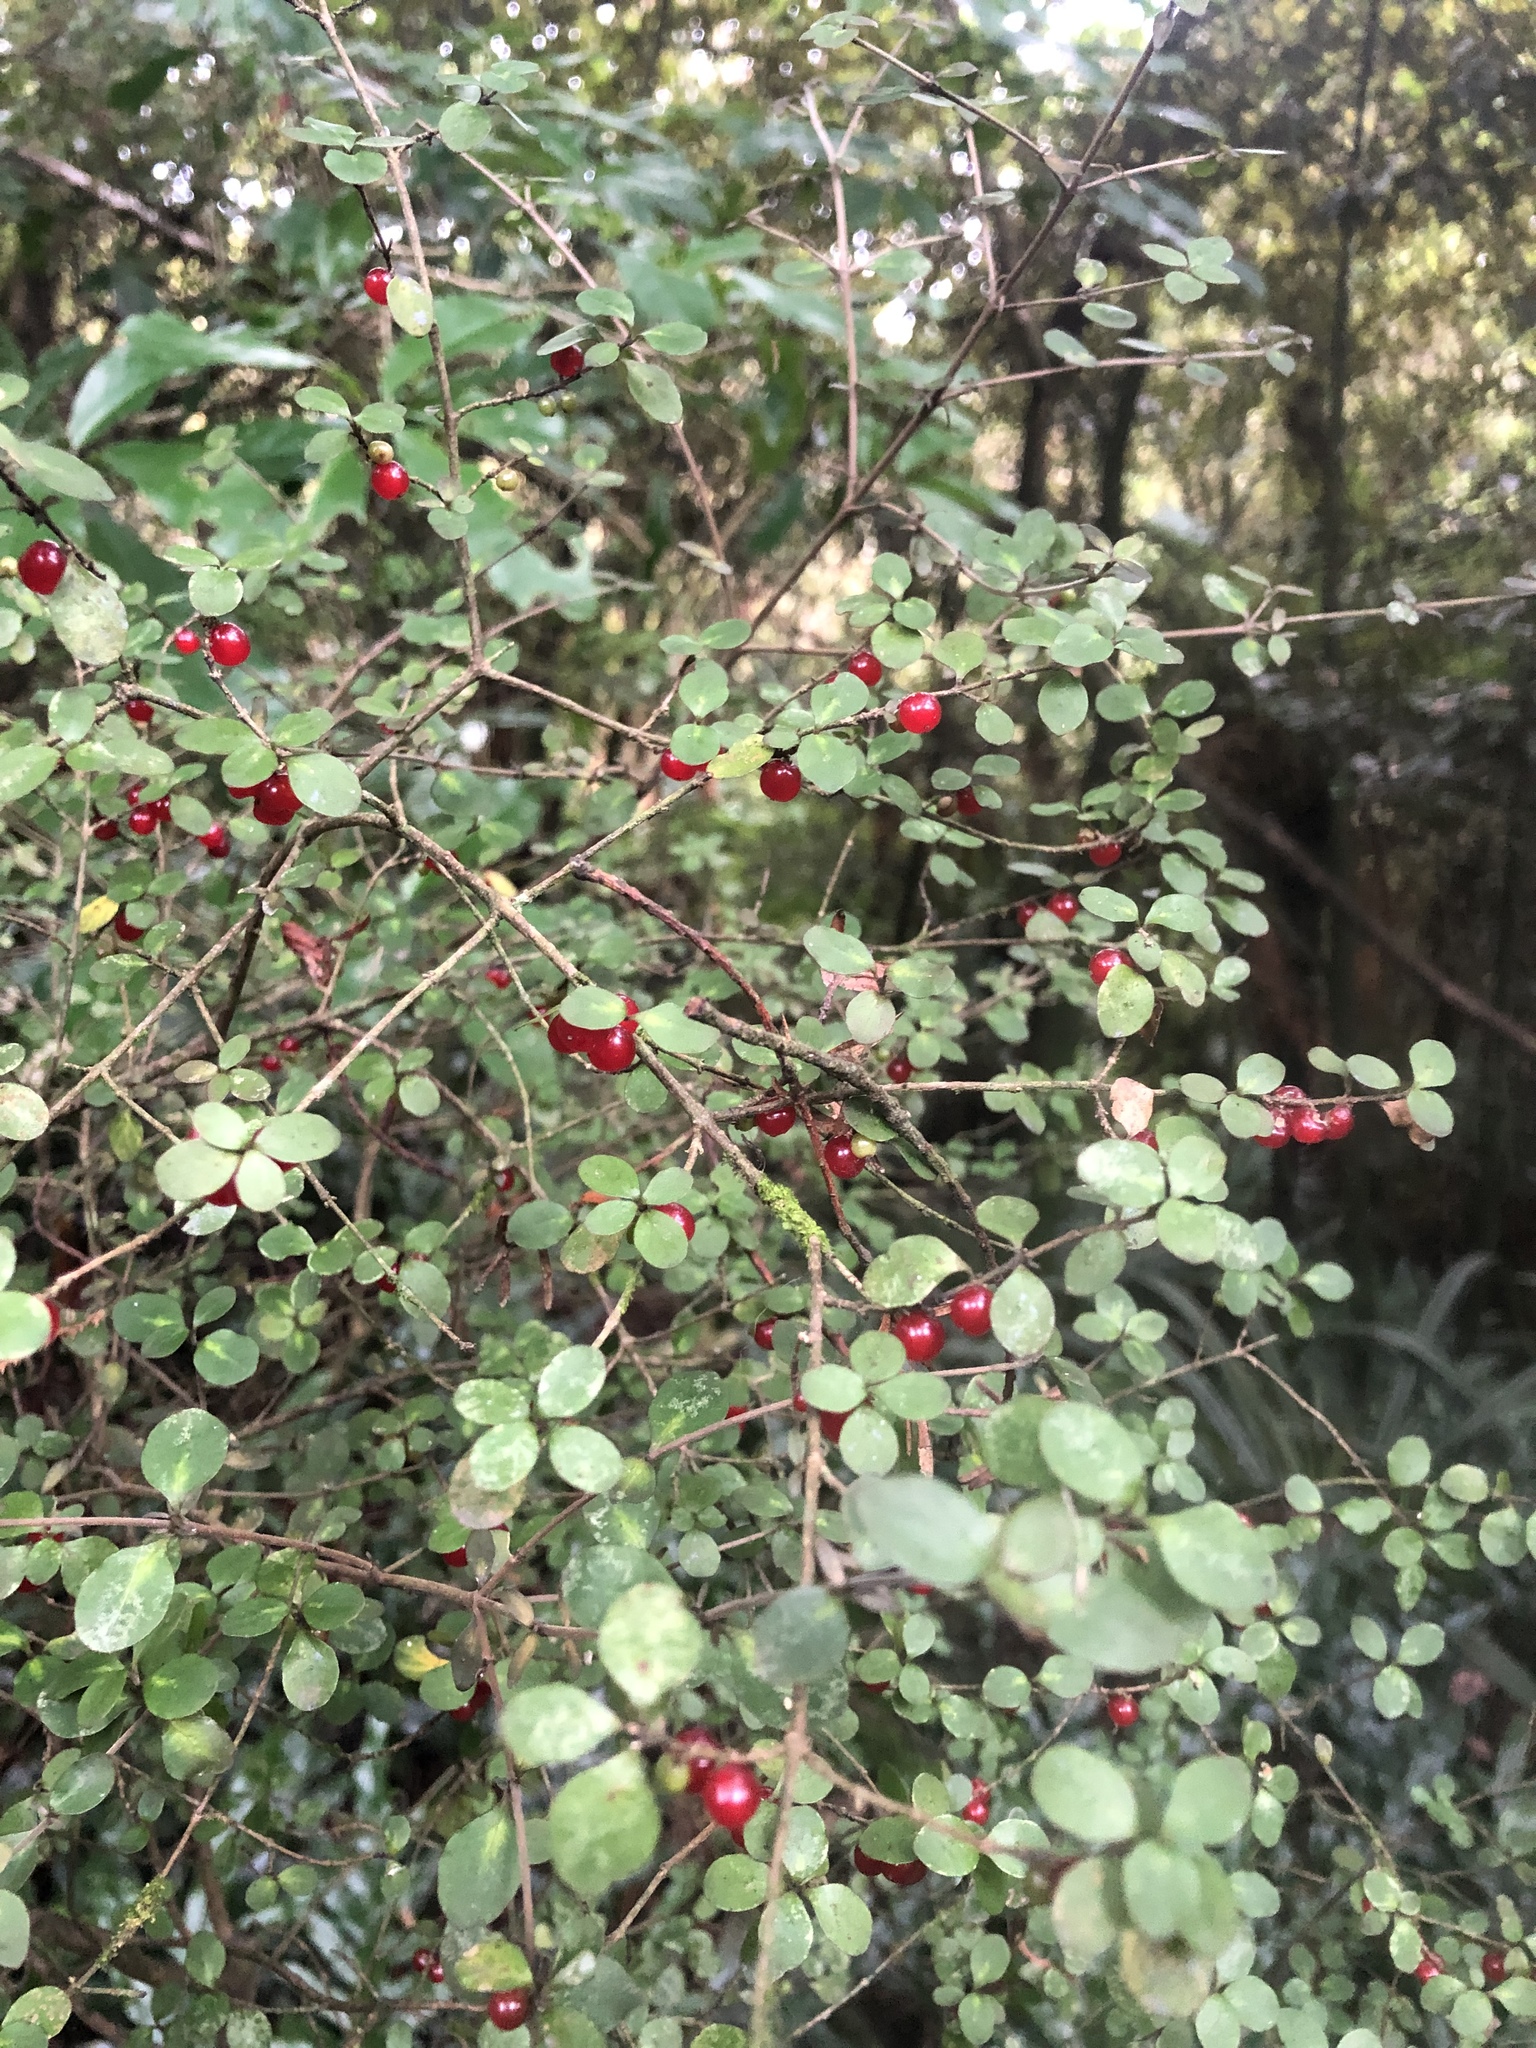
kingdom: Plantae
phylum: Tracheophyta
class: Magnoliopsida
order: Gentianales
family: Rubiaceae
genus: Coprosma
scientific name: Coprosma rhamnoides
